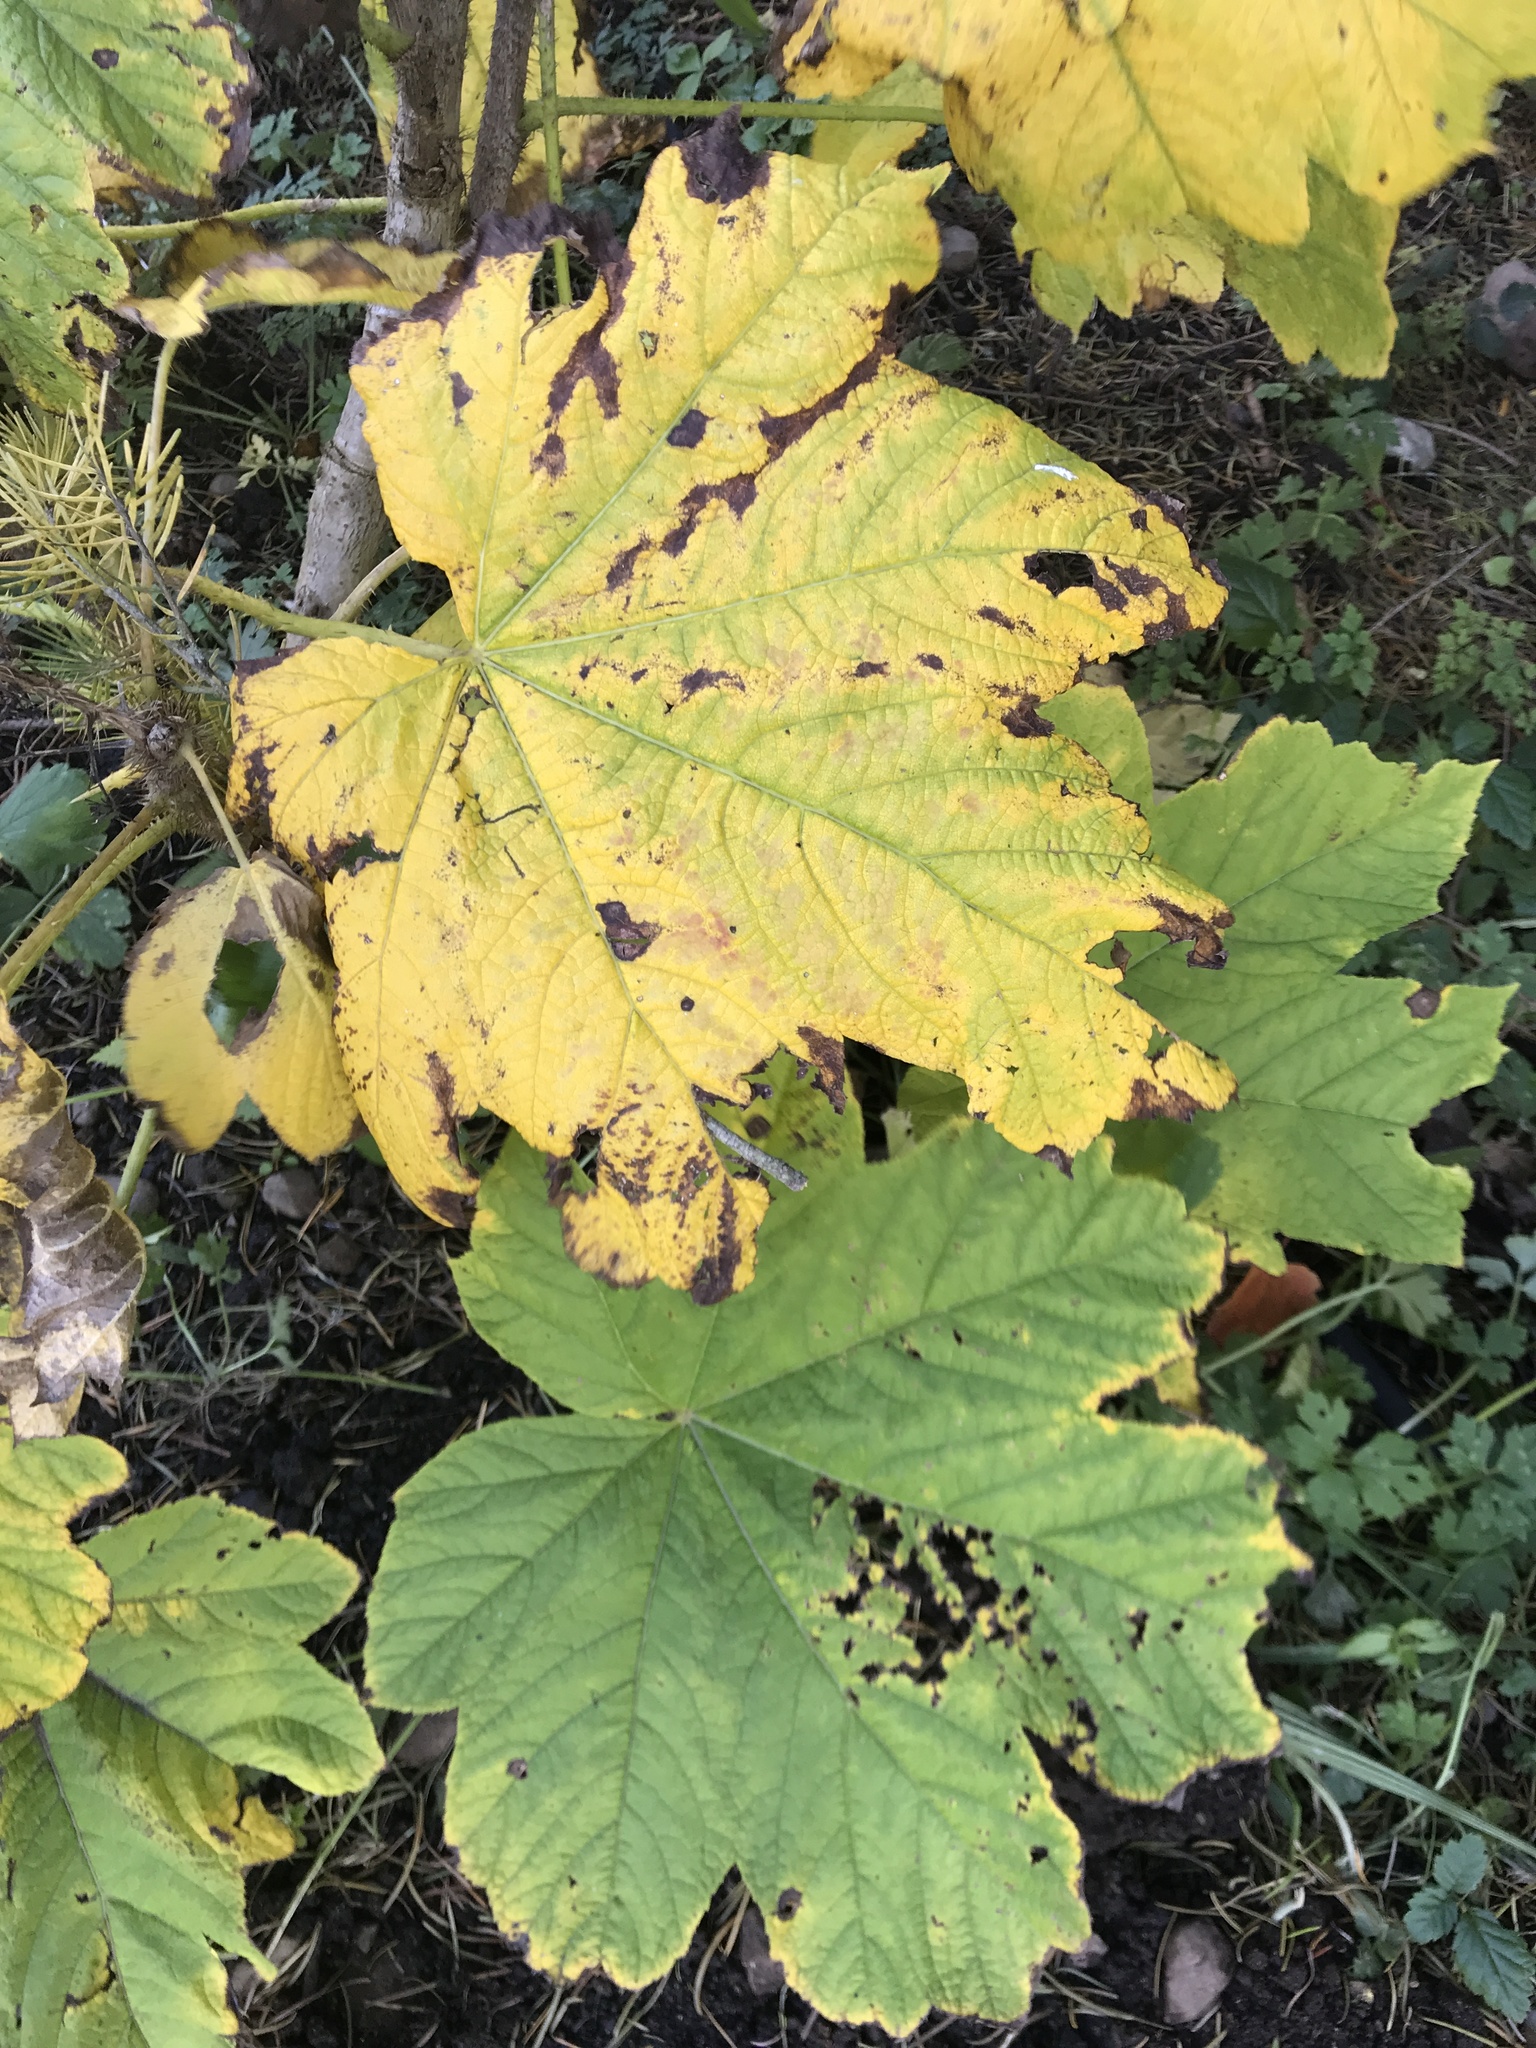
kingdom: Plantae
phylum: Tracheophyta
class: Magnoliopsida
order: Apiales
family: Araliaceae
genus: Oplopanax
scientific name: Oplopanax horridus
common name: Devil's walking-stick
